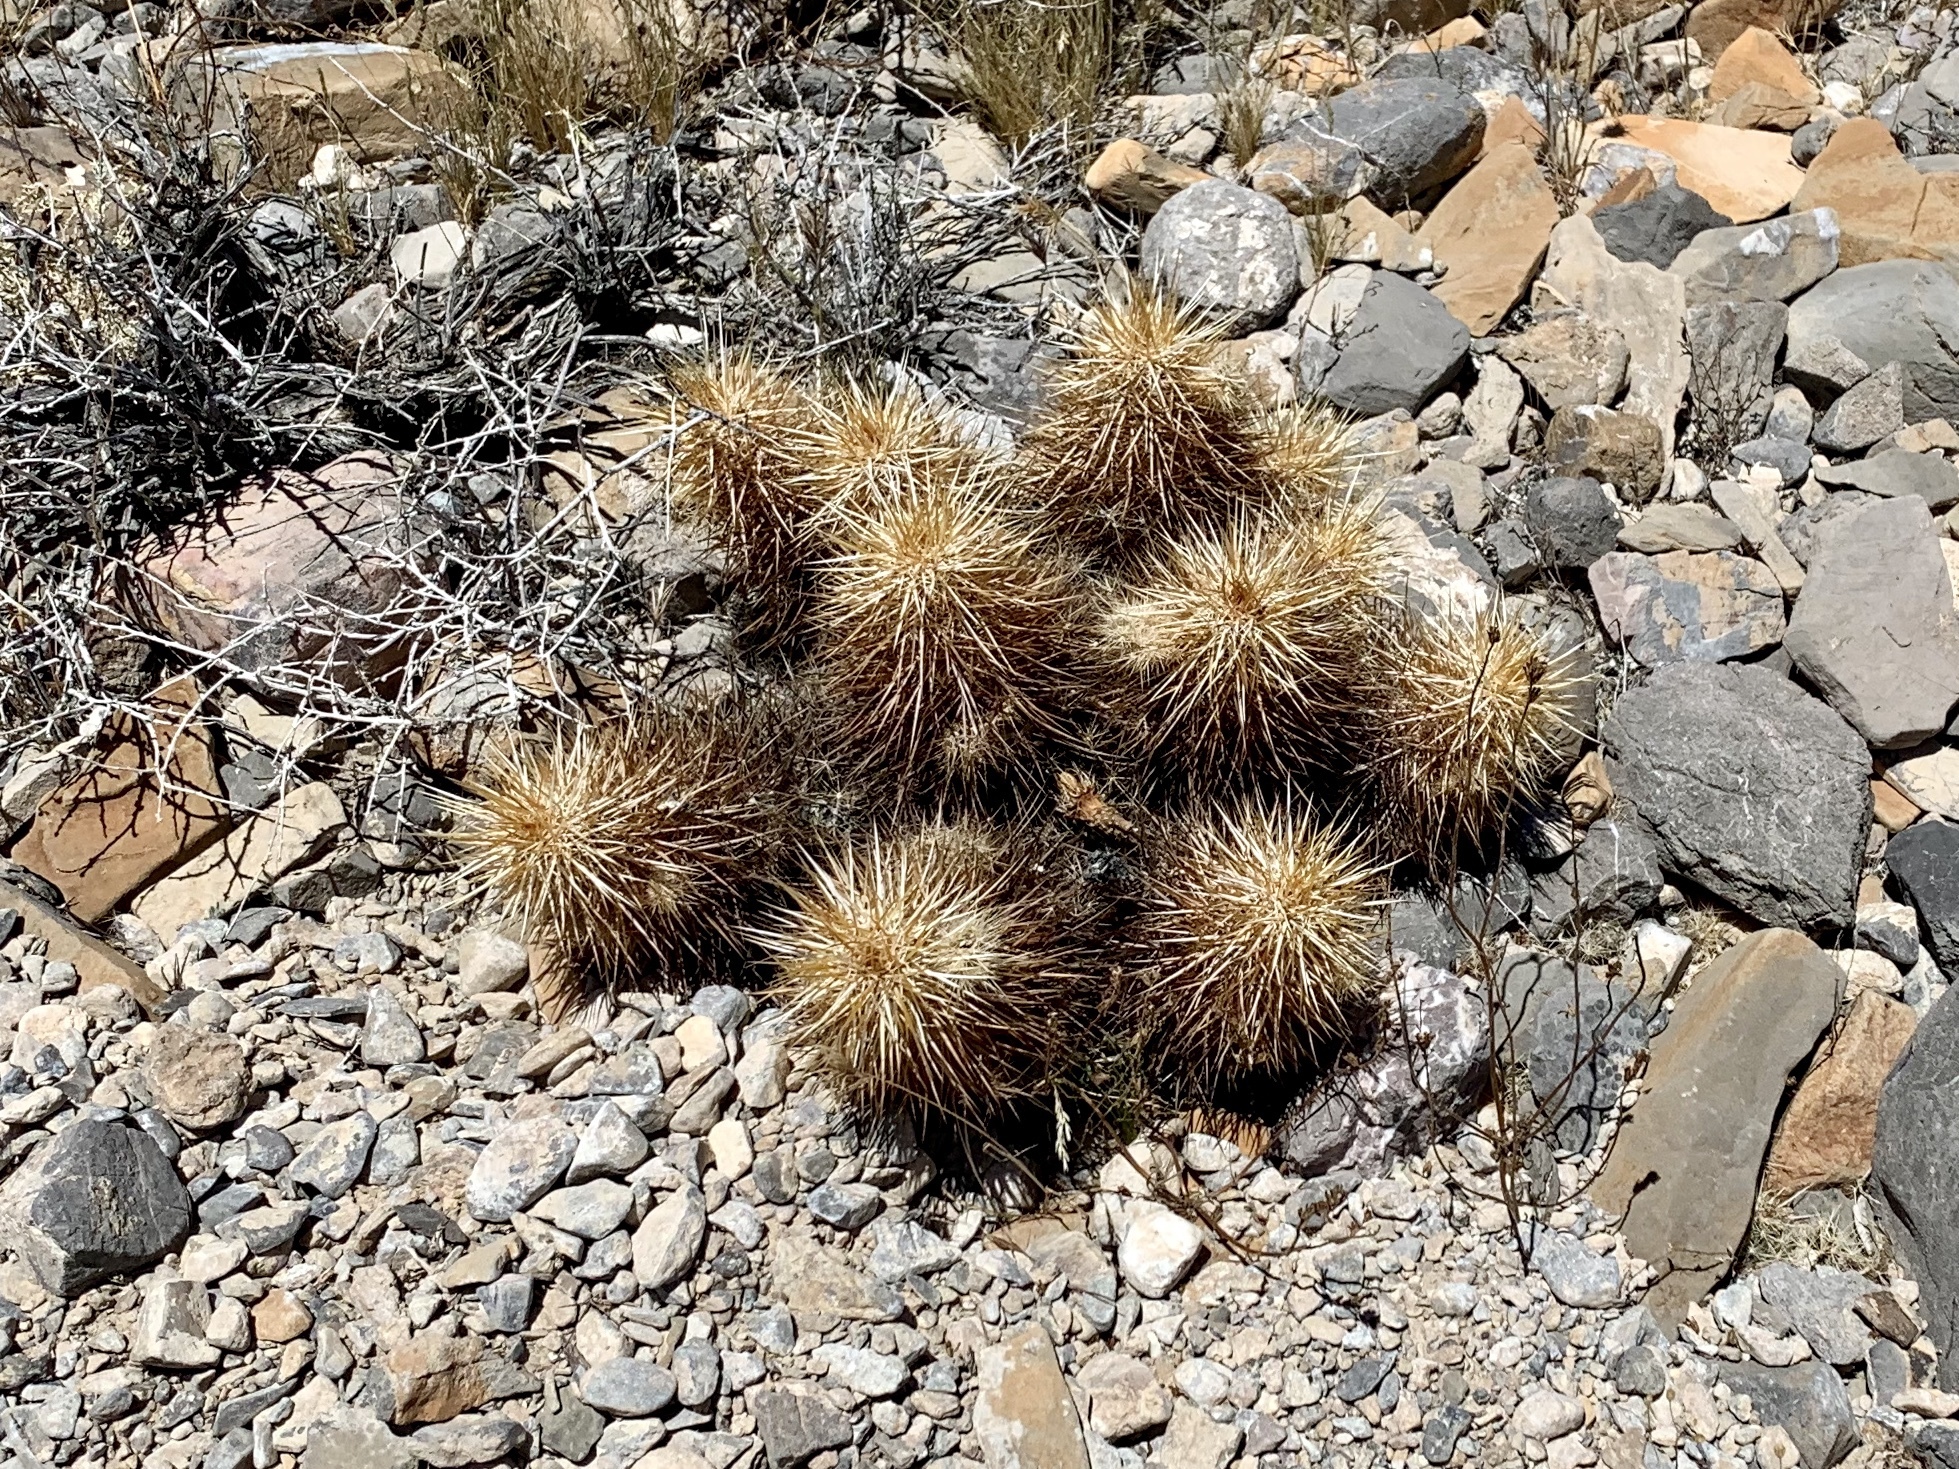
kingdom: Plantae
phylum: Tracheophyta
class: Magnoliopsida
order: Caryophyllales
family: Cactaceae
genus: Echinocereus
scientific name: Echinocereus engelmannii
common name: Engelmann's hedgehog cactus
